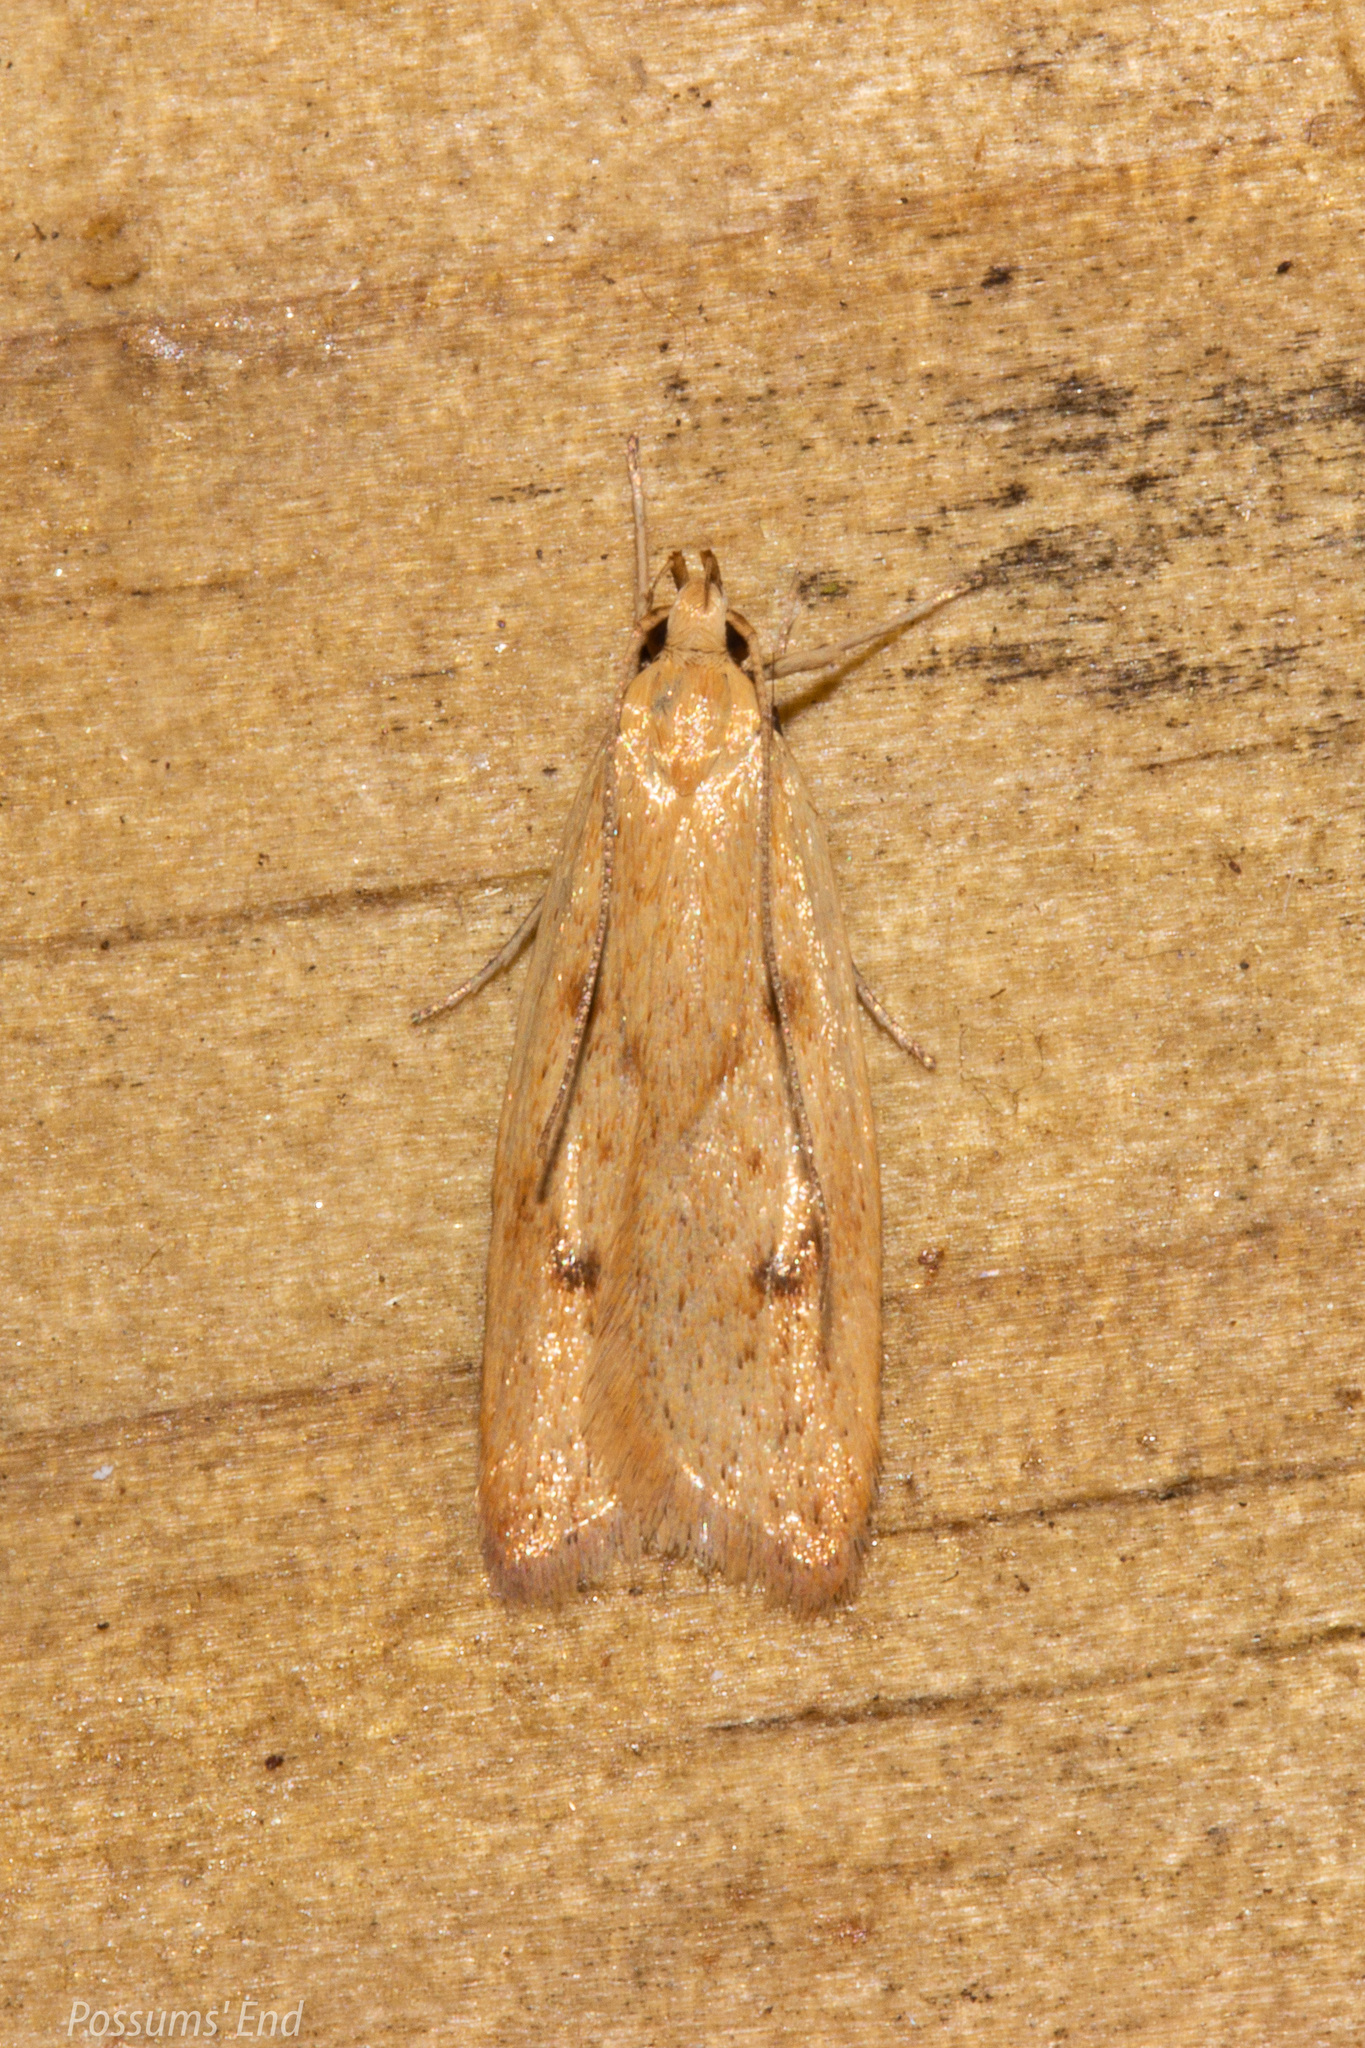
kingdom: Animalia
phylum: Arthropoda
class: Insecta
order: Lepidoptera
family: Oecophoridae
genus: Gymnobathra
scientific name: Gymnobathra sarcoxantha
